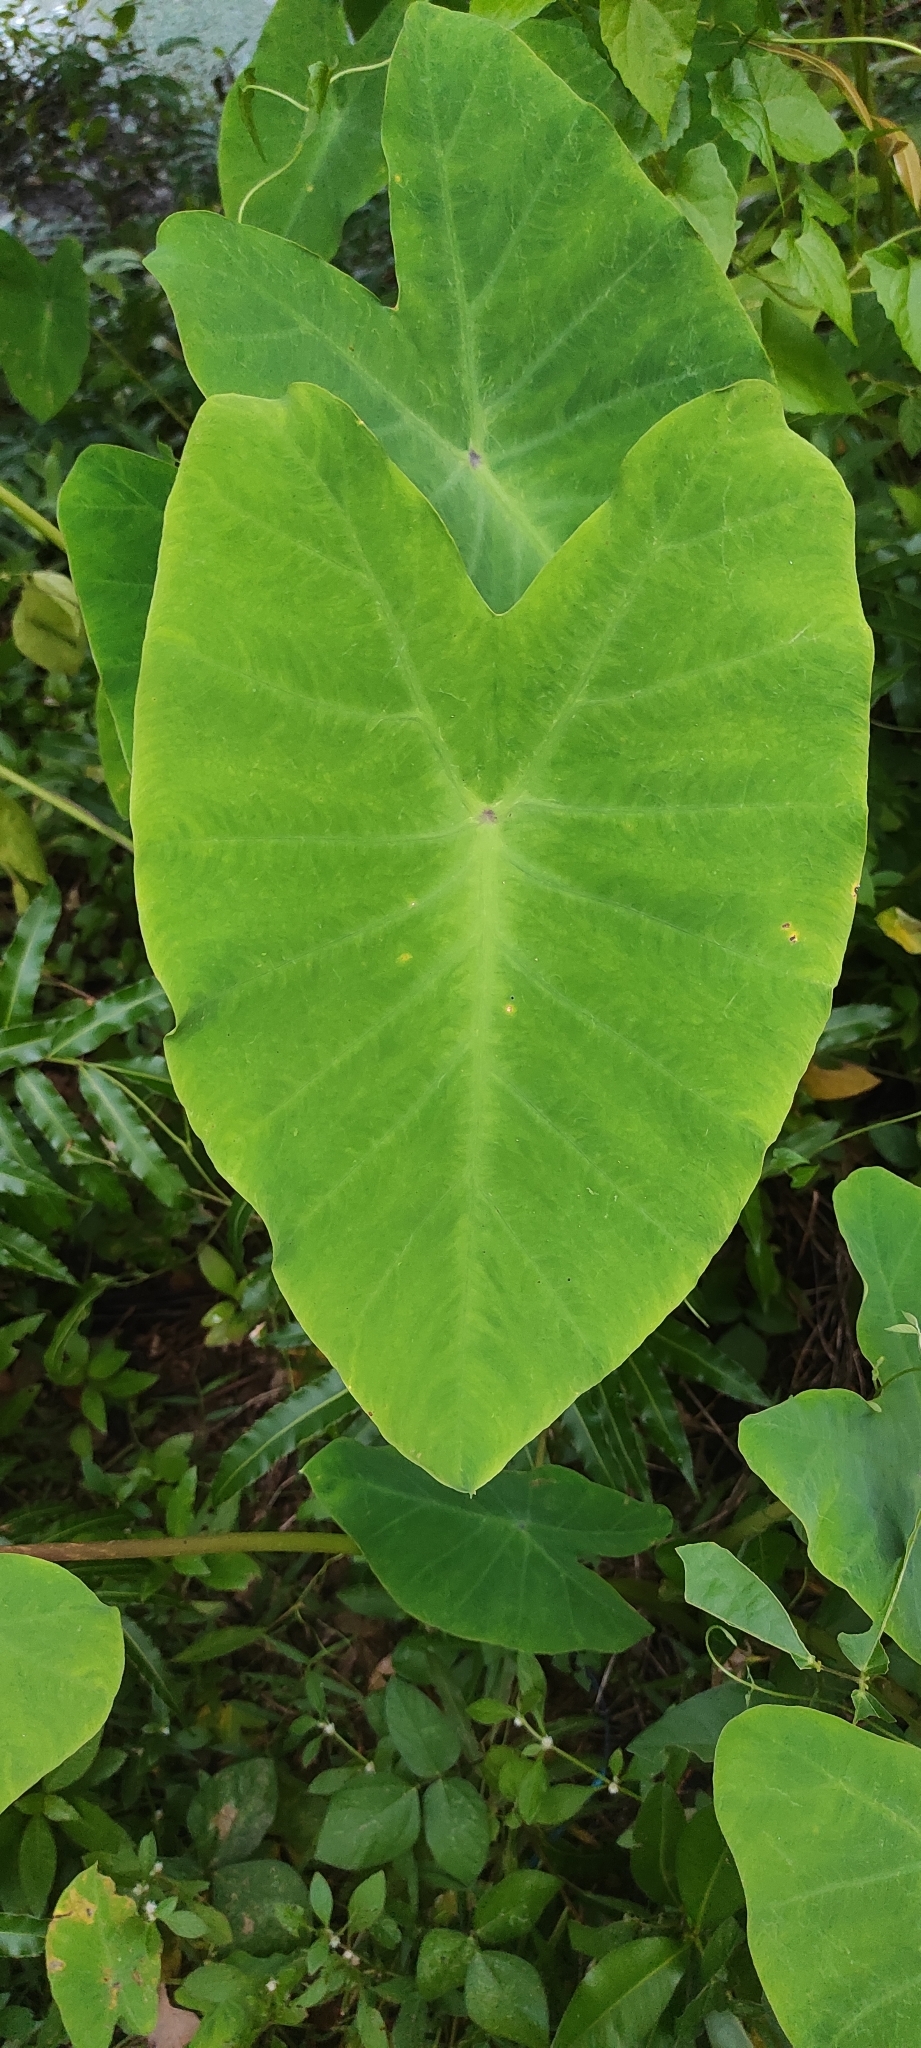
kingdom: Plantae
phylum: Tracheophyta
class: Liliopsida
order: Alismatales
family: Araceae
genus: Colocasia
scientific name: Colocasia esculenta
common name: Taro
